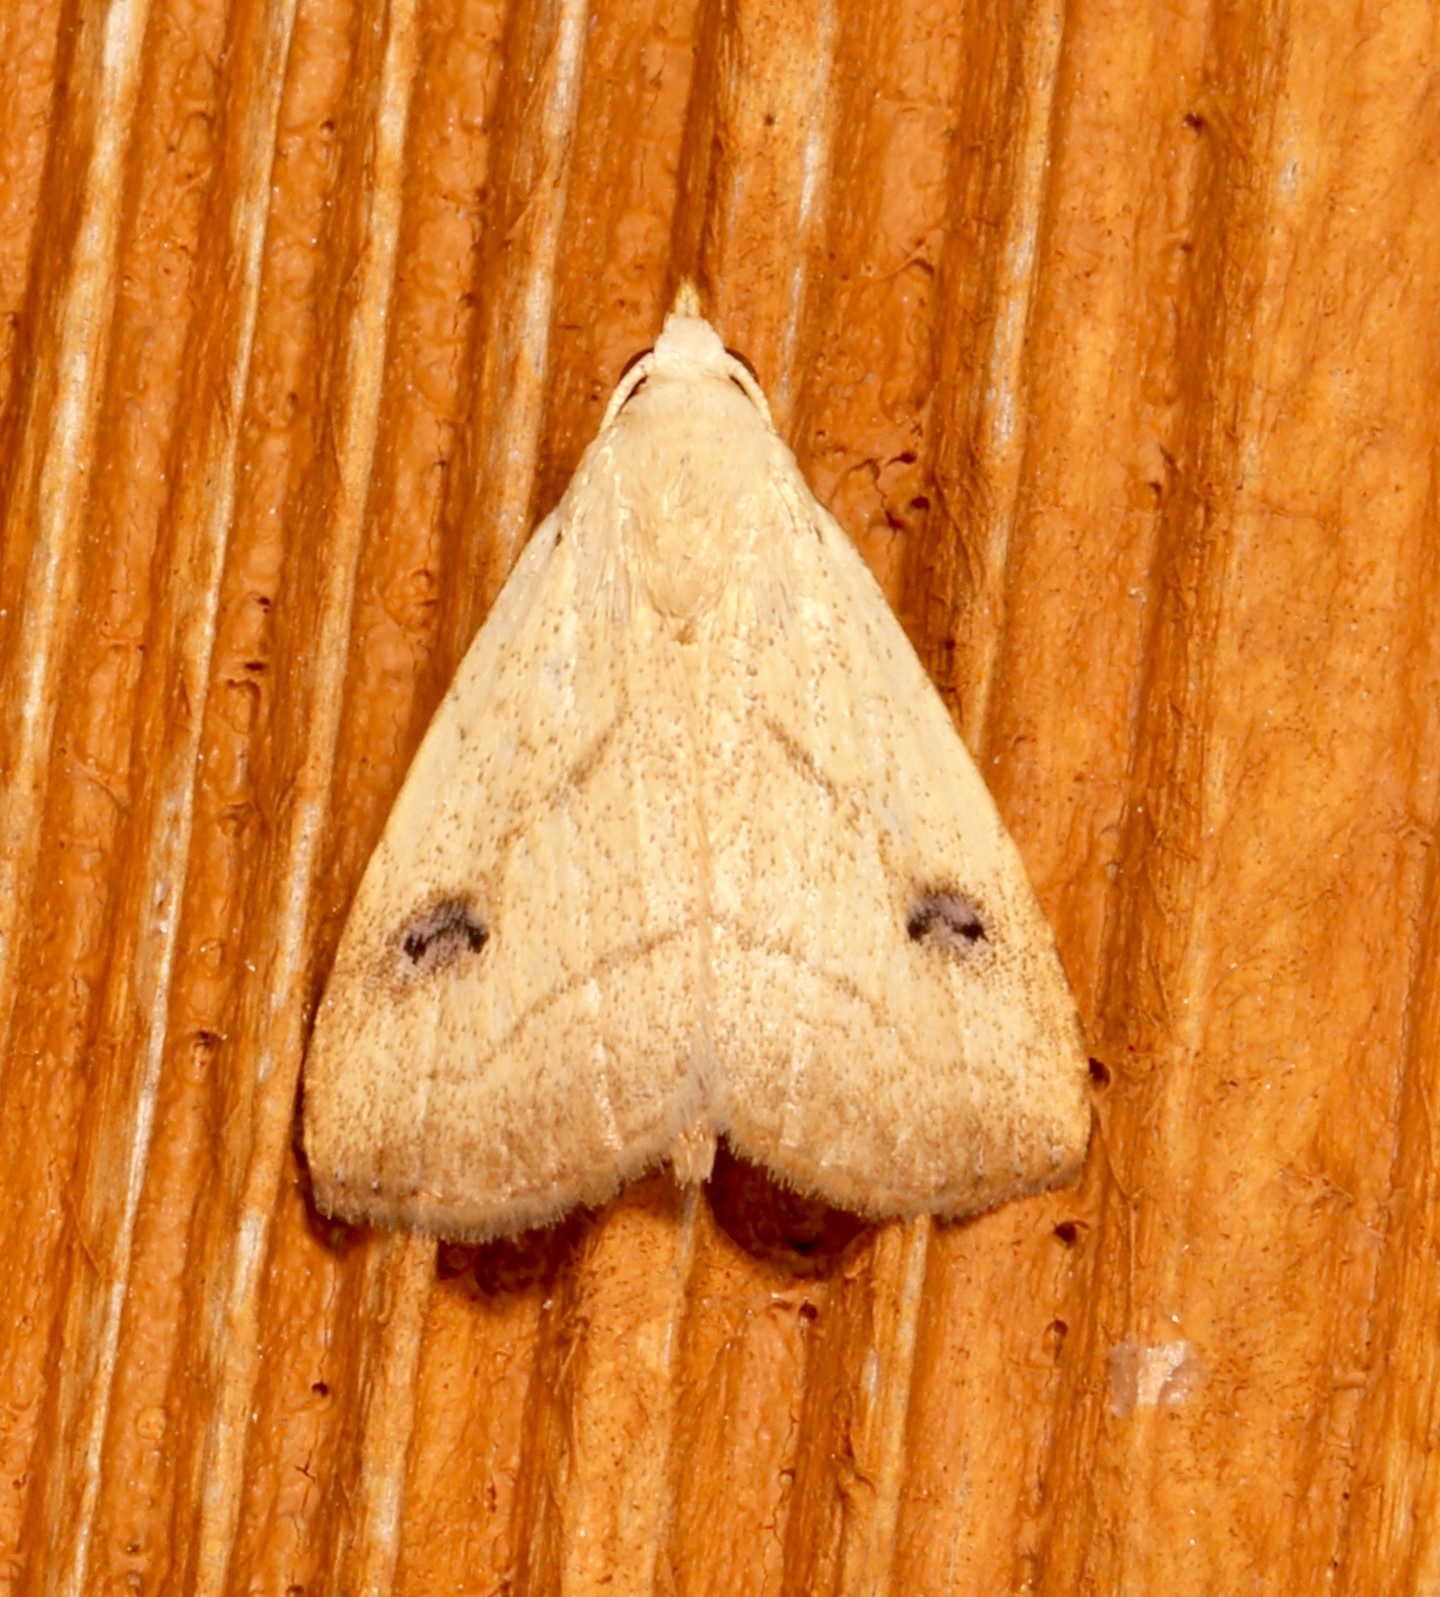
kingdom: Animalia
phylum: Arthropoda
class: Insecta
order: Lepidoptera
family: Erebidae
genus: Rivula
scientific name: Rivula propinqualis
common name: Spotted grass moth
